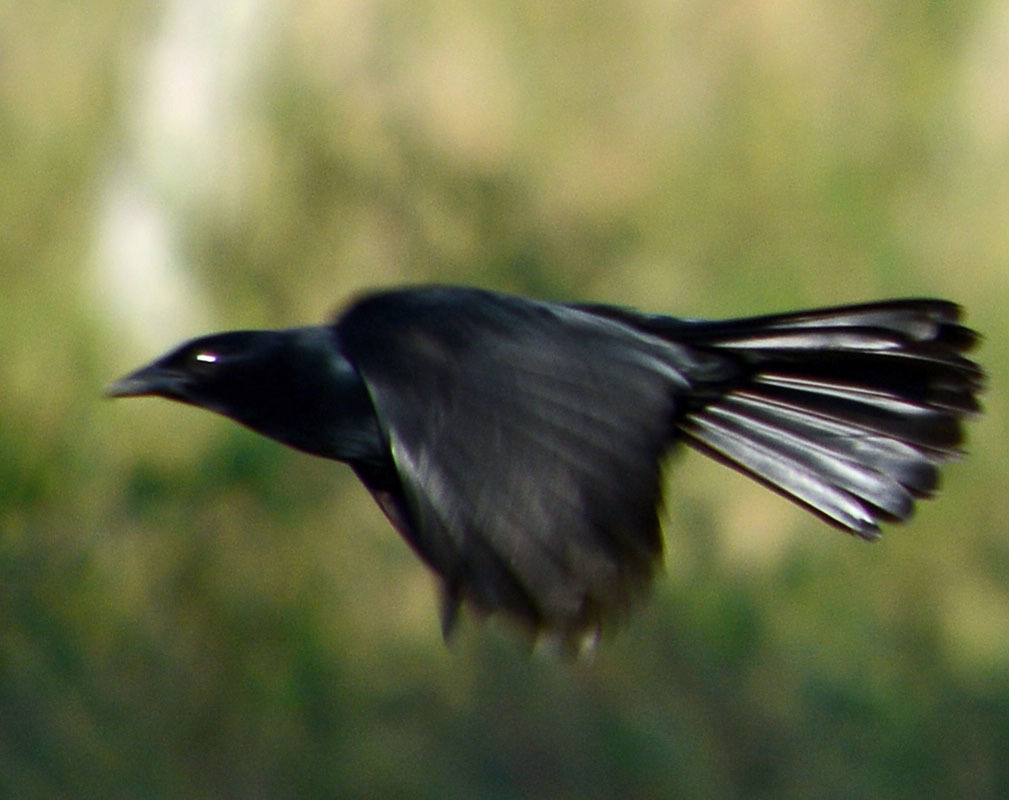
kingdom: Animalia
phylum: Chordata
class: Aves
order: Passeriformes
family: Icteridae
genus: Dives
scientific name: Dives dives
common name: Melodious blackbird
